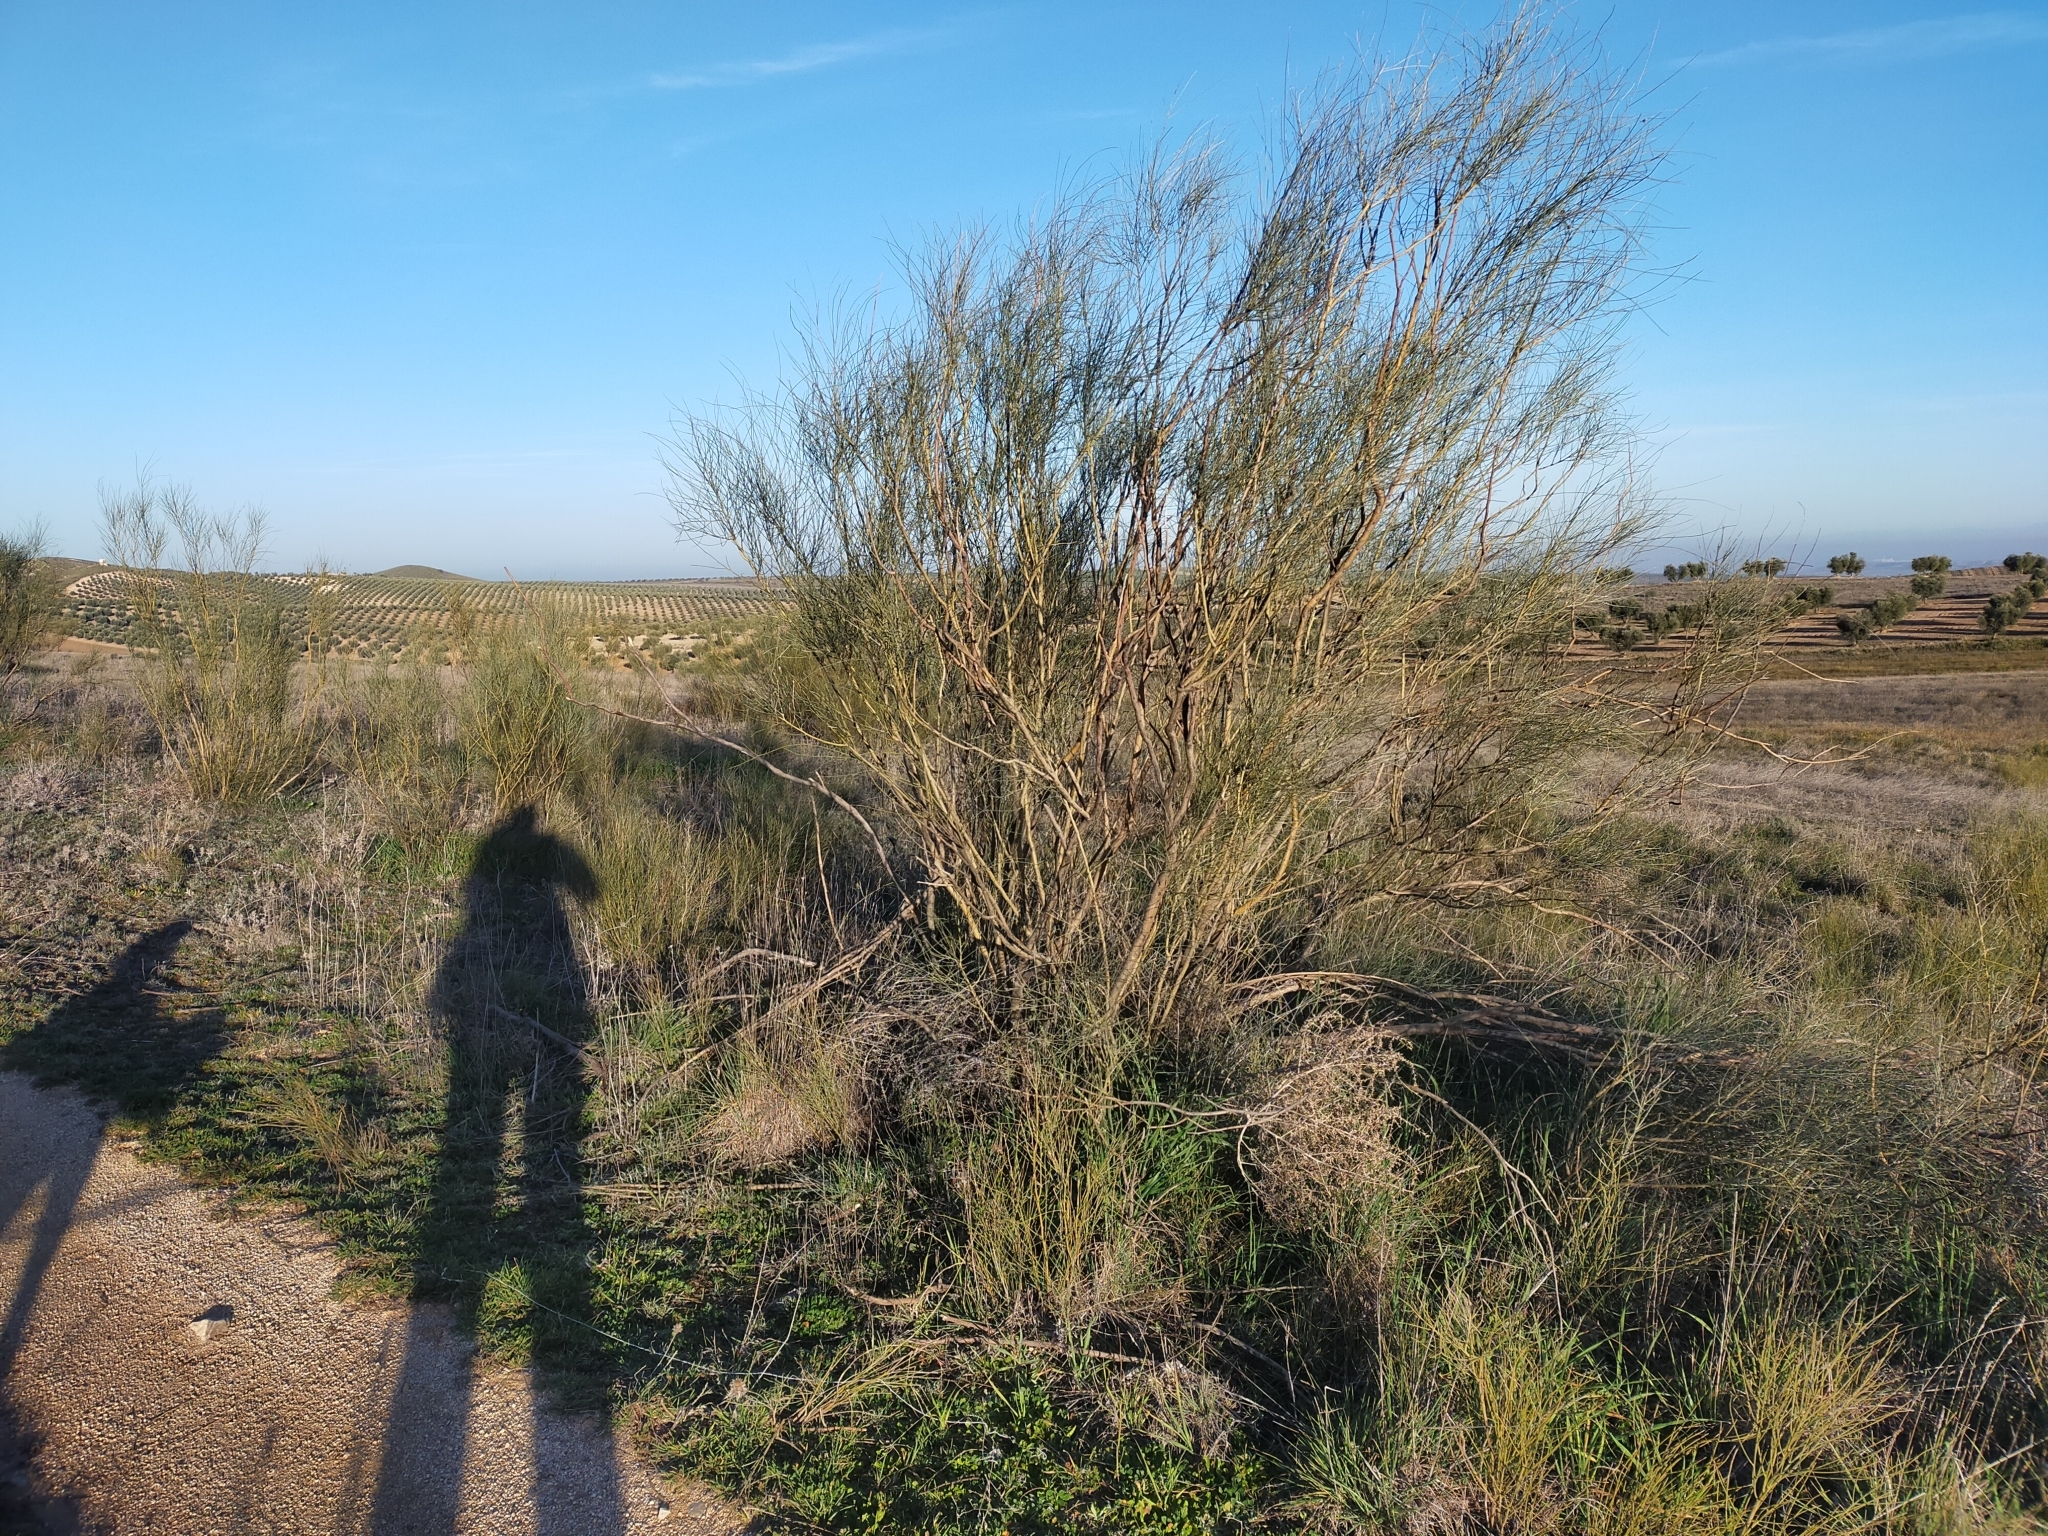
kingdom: Plantae
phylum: Tracheophyta
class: Magnoliopsida
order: Fabales
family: Fabaceae
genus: Retama
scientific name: Retama sphaerocarpa
